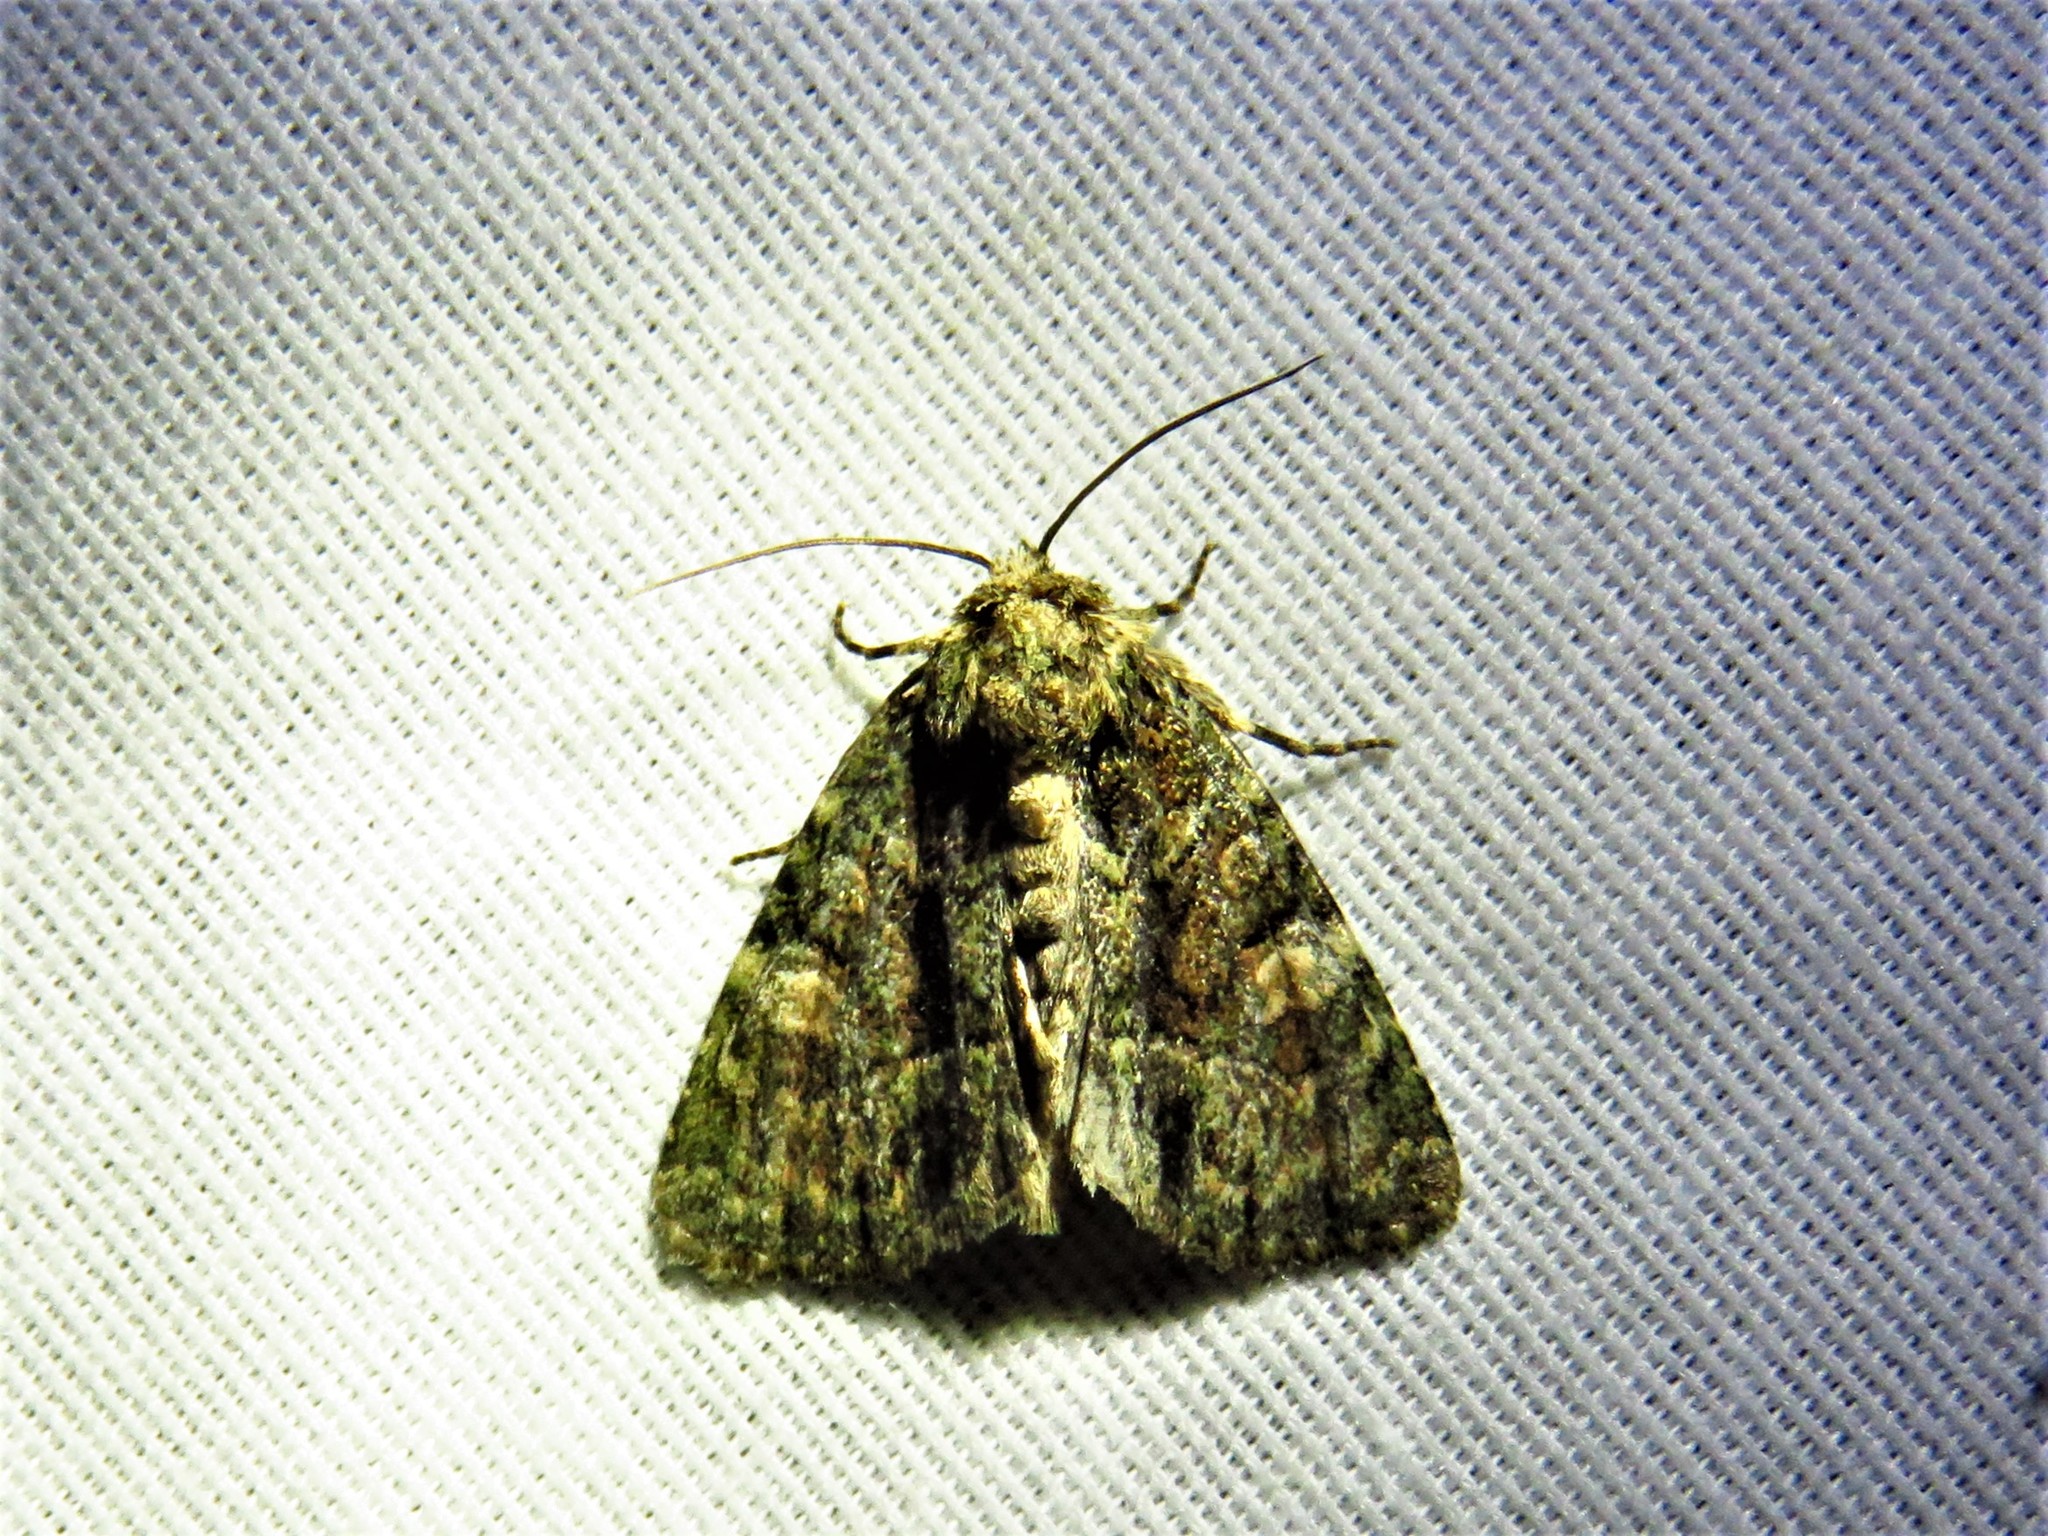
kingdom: Animalia
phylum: Arthropoda
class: Insecta
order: Lepidoptera
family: Noctuidae
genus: Phosphila
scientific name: Phosphila miselioides
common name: Spotted phosphila moth
